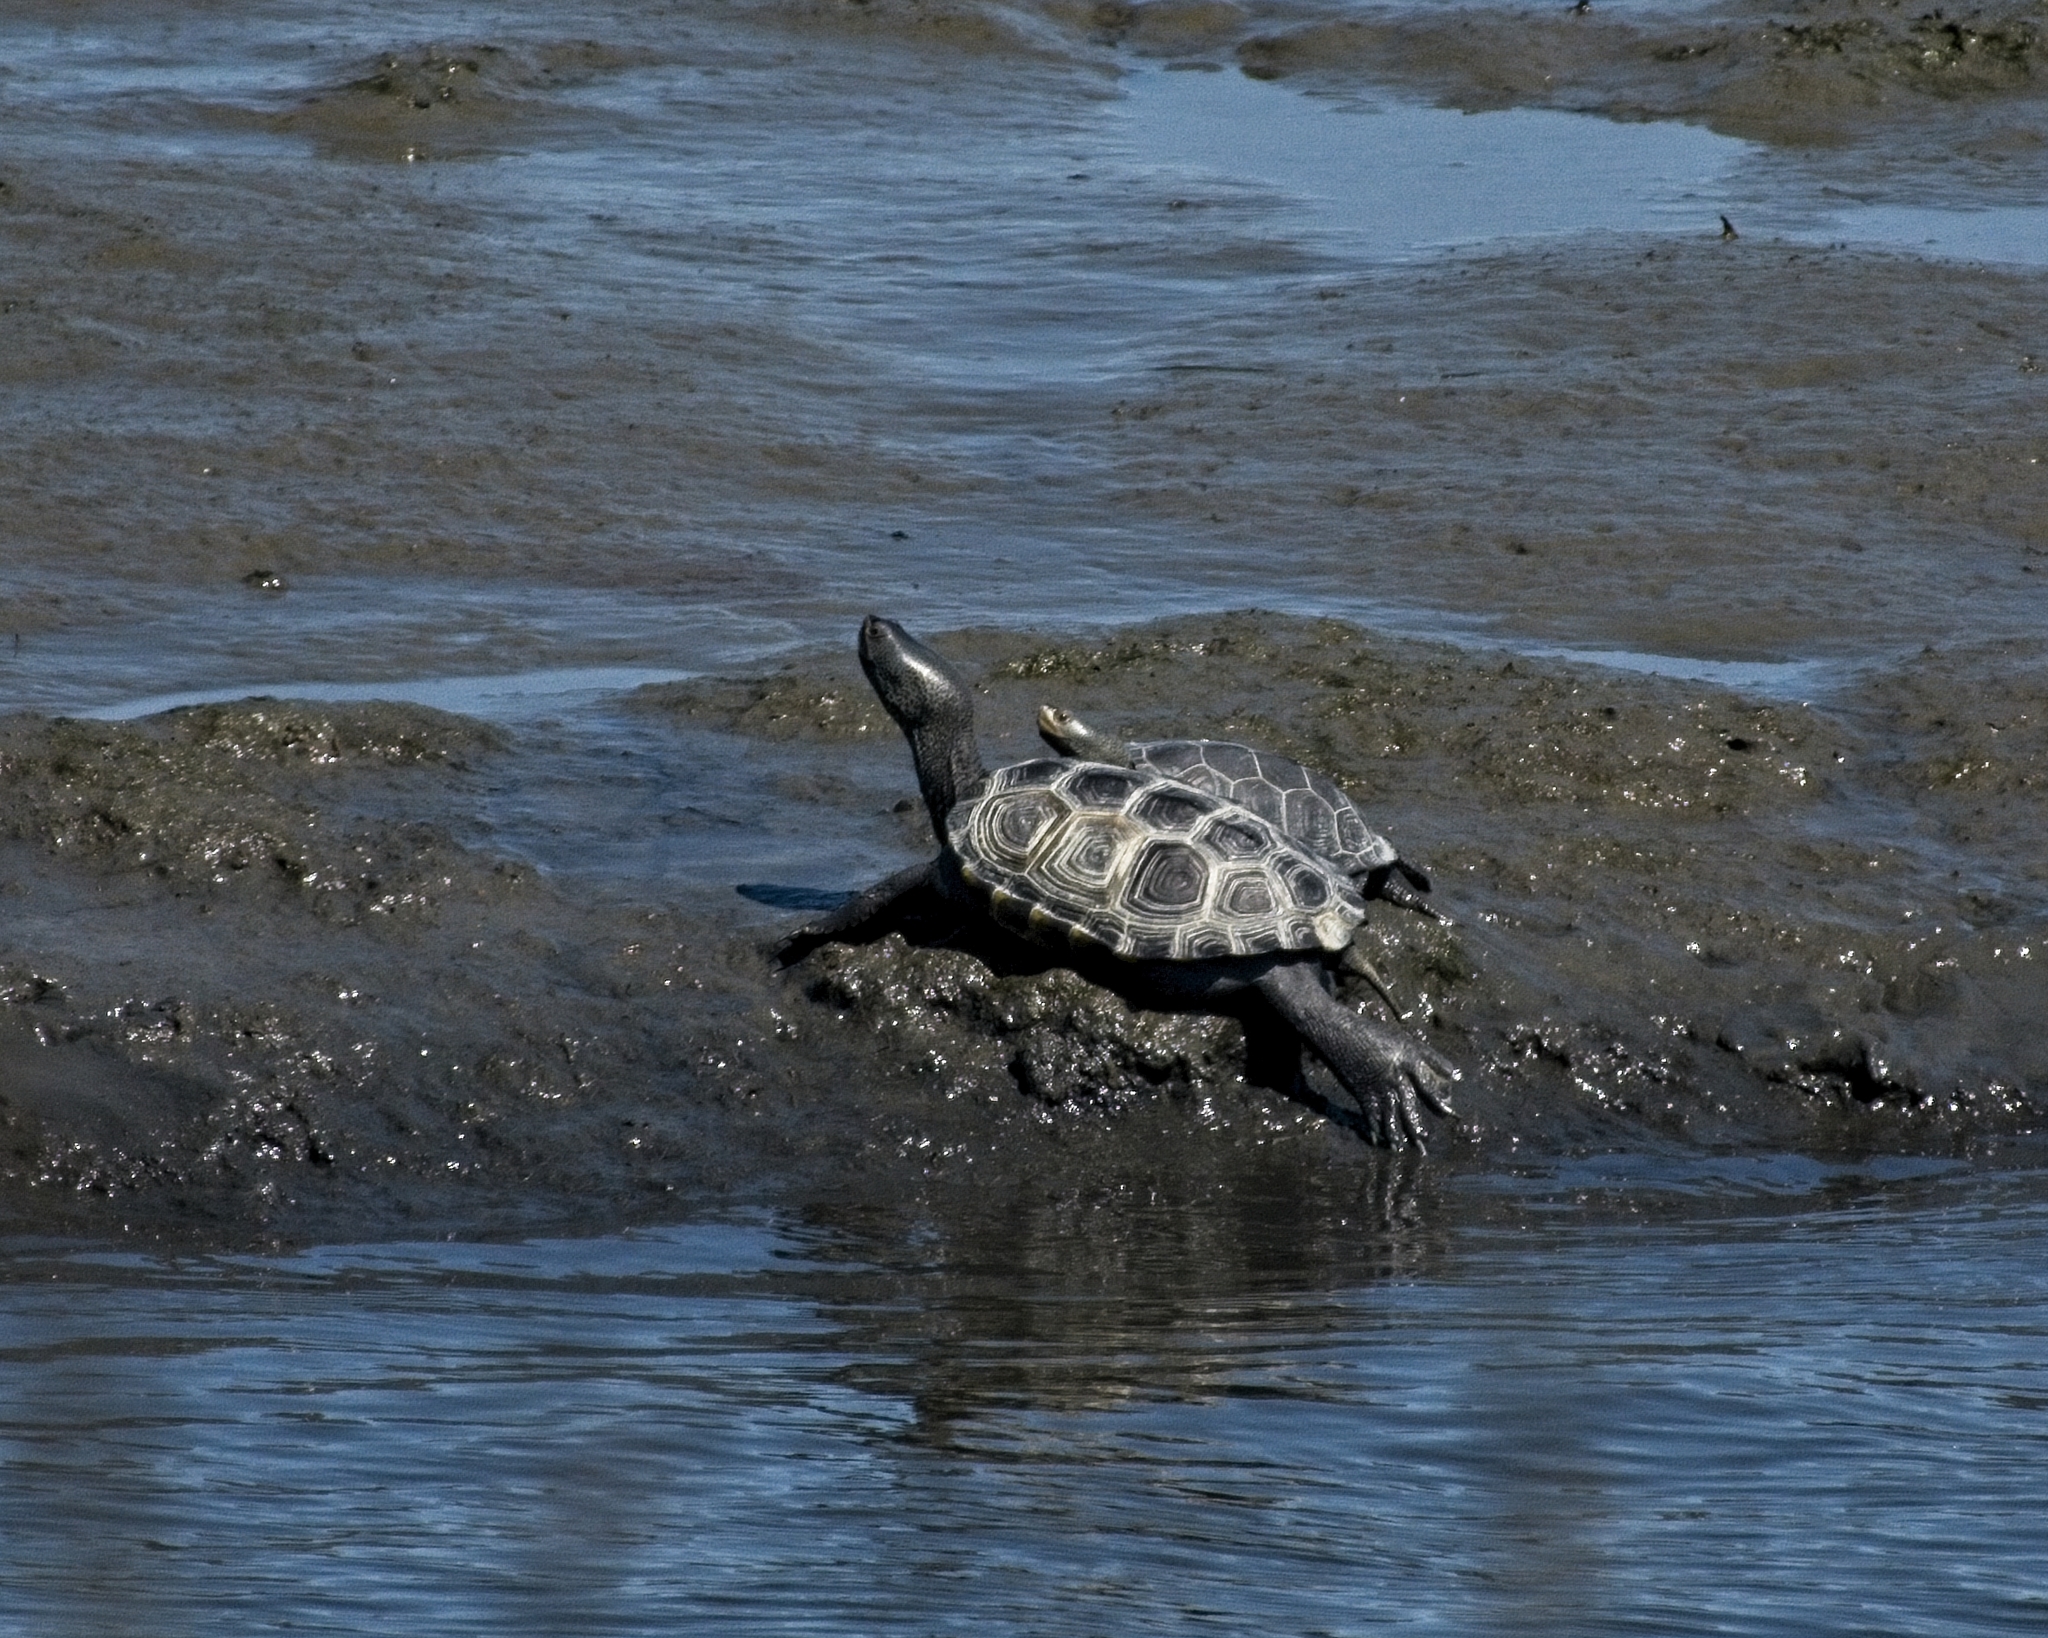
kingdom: Animalia
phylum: Chordata
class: Testudines
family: Emydidae
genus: Malaclemys
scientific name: Malaclemys terrapin
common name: Diamondback terrapin
